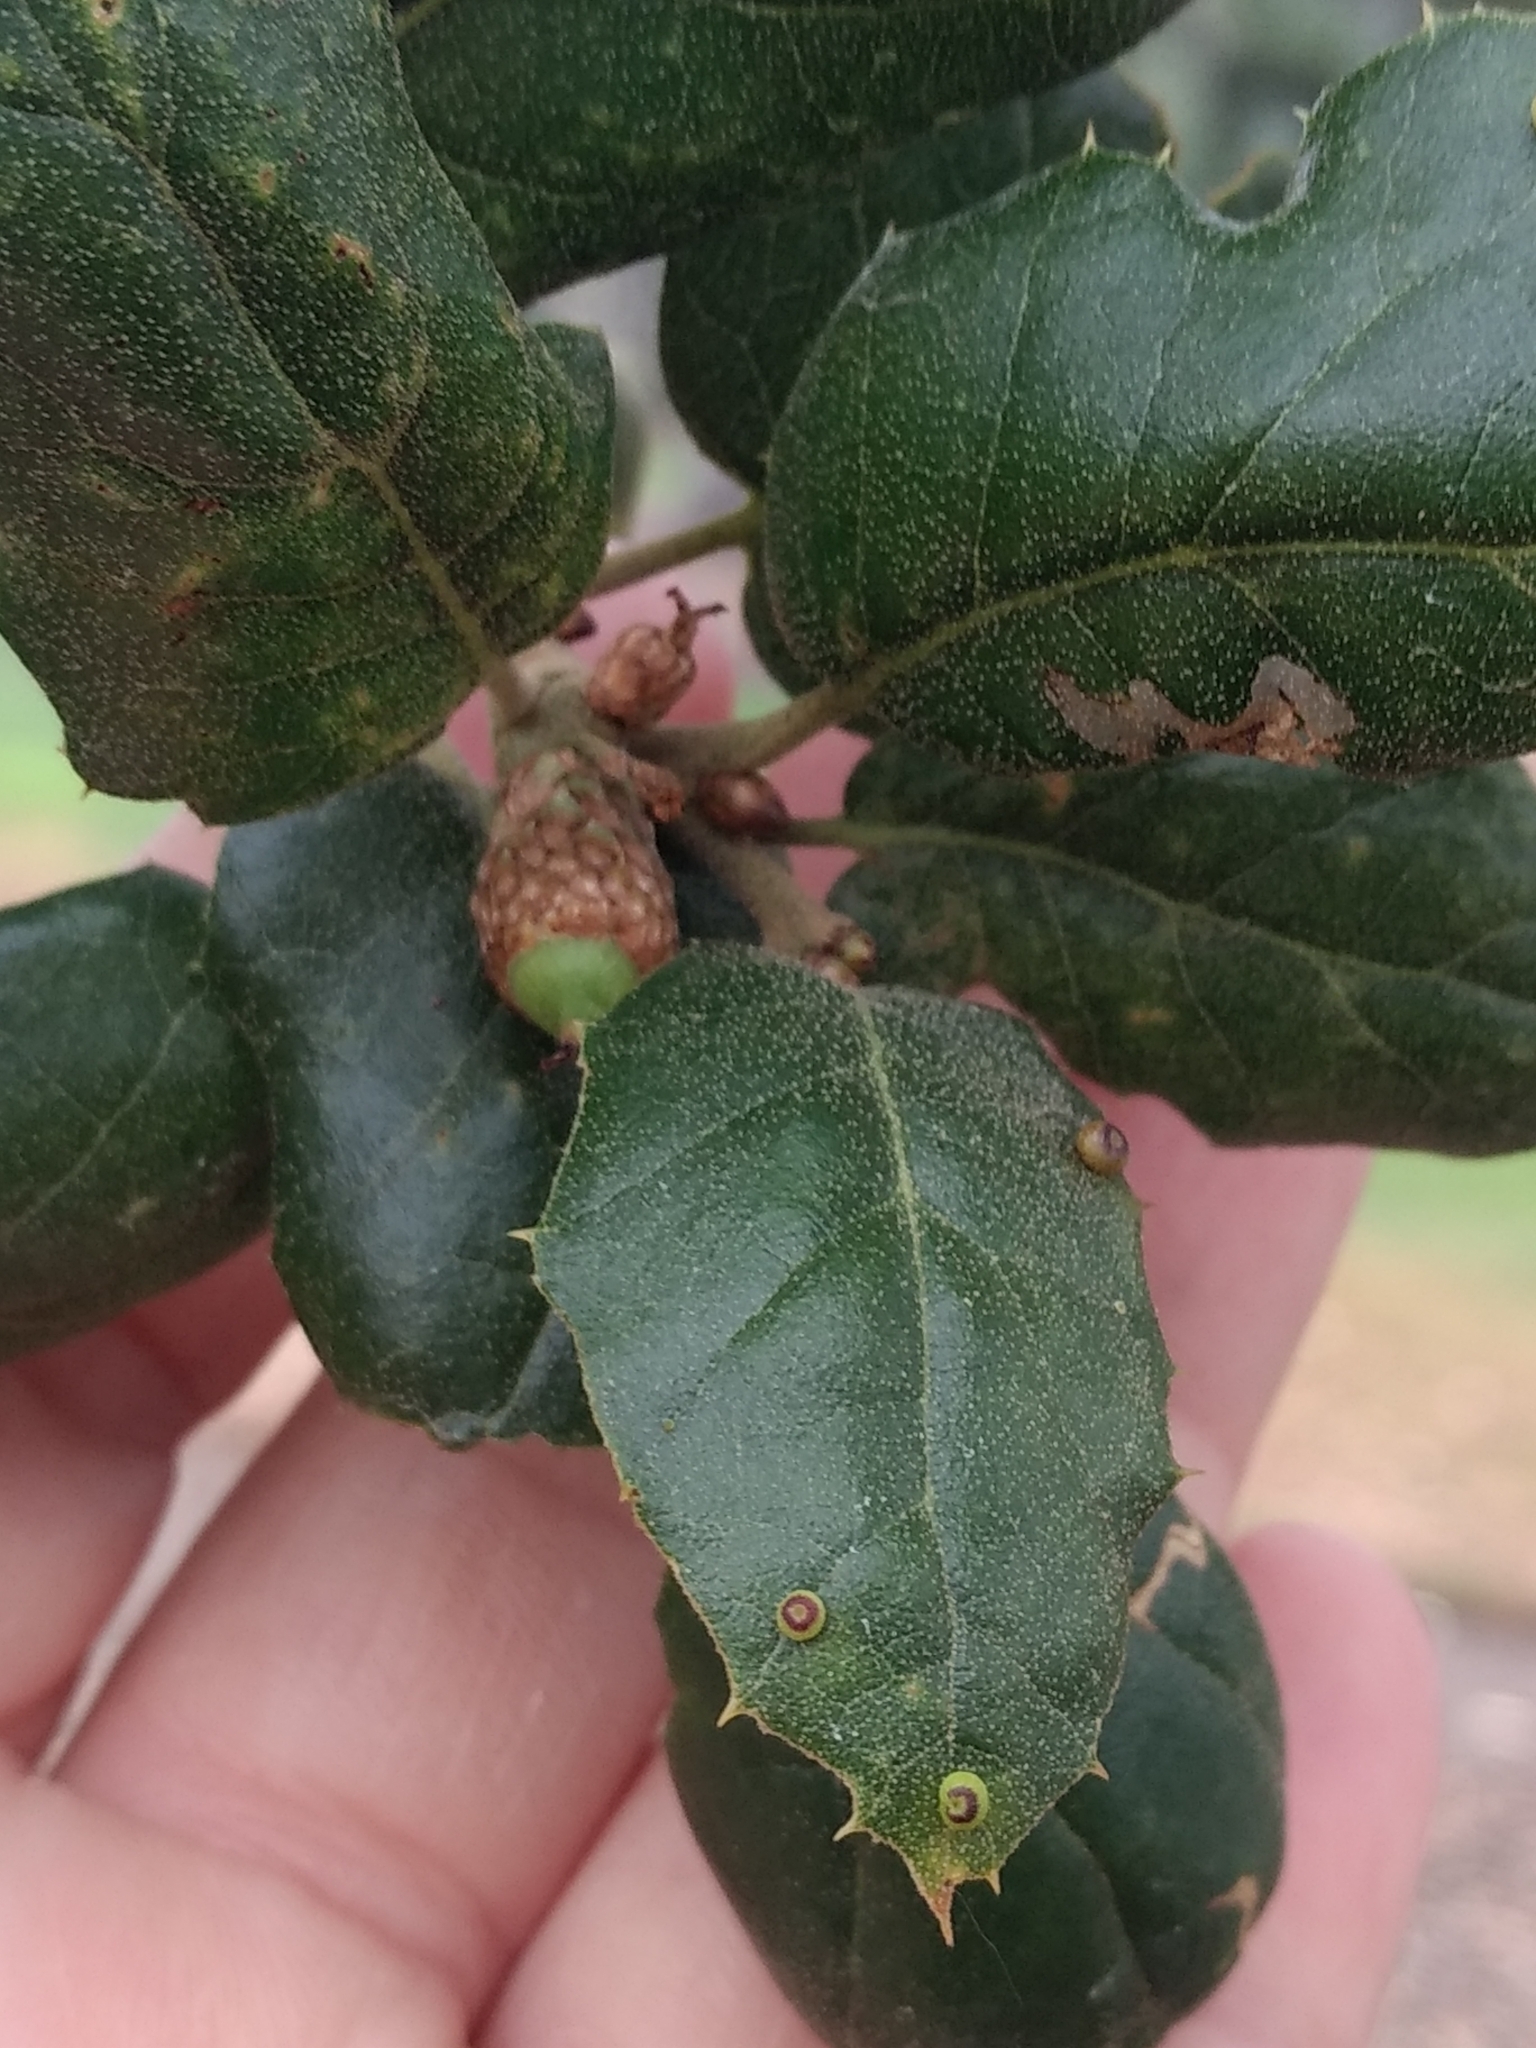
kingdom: Animalia
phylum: Arthropoda
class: Insecta
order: Hymenoptera
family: Cynipidae
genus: Dryocosmus
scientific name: Dryocosmus
